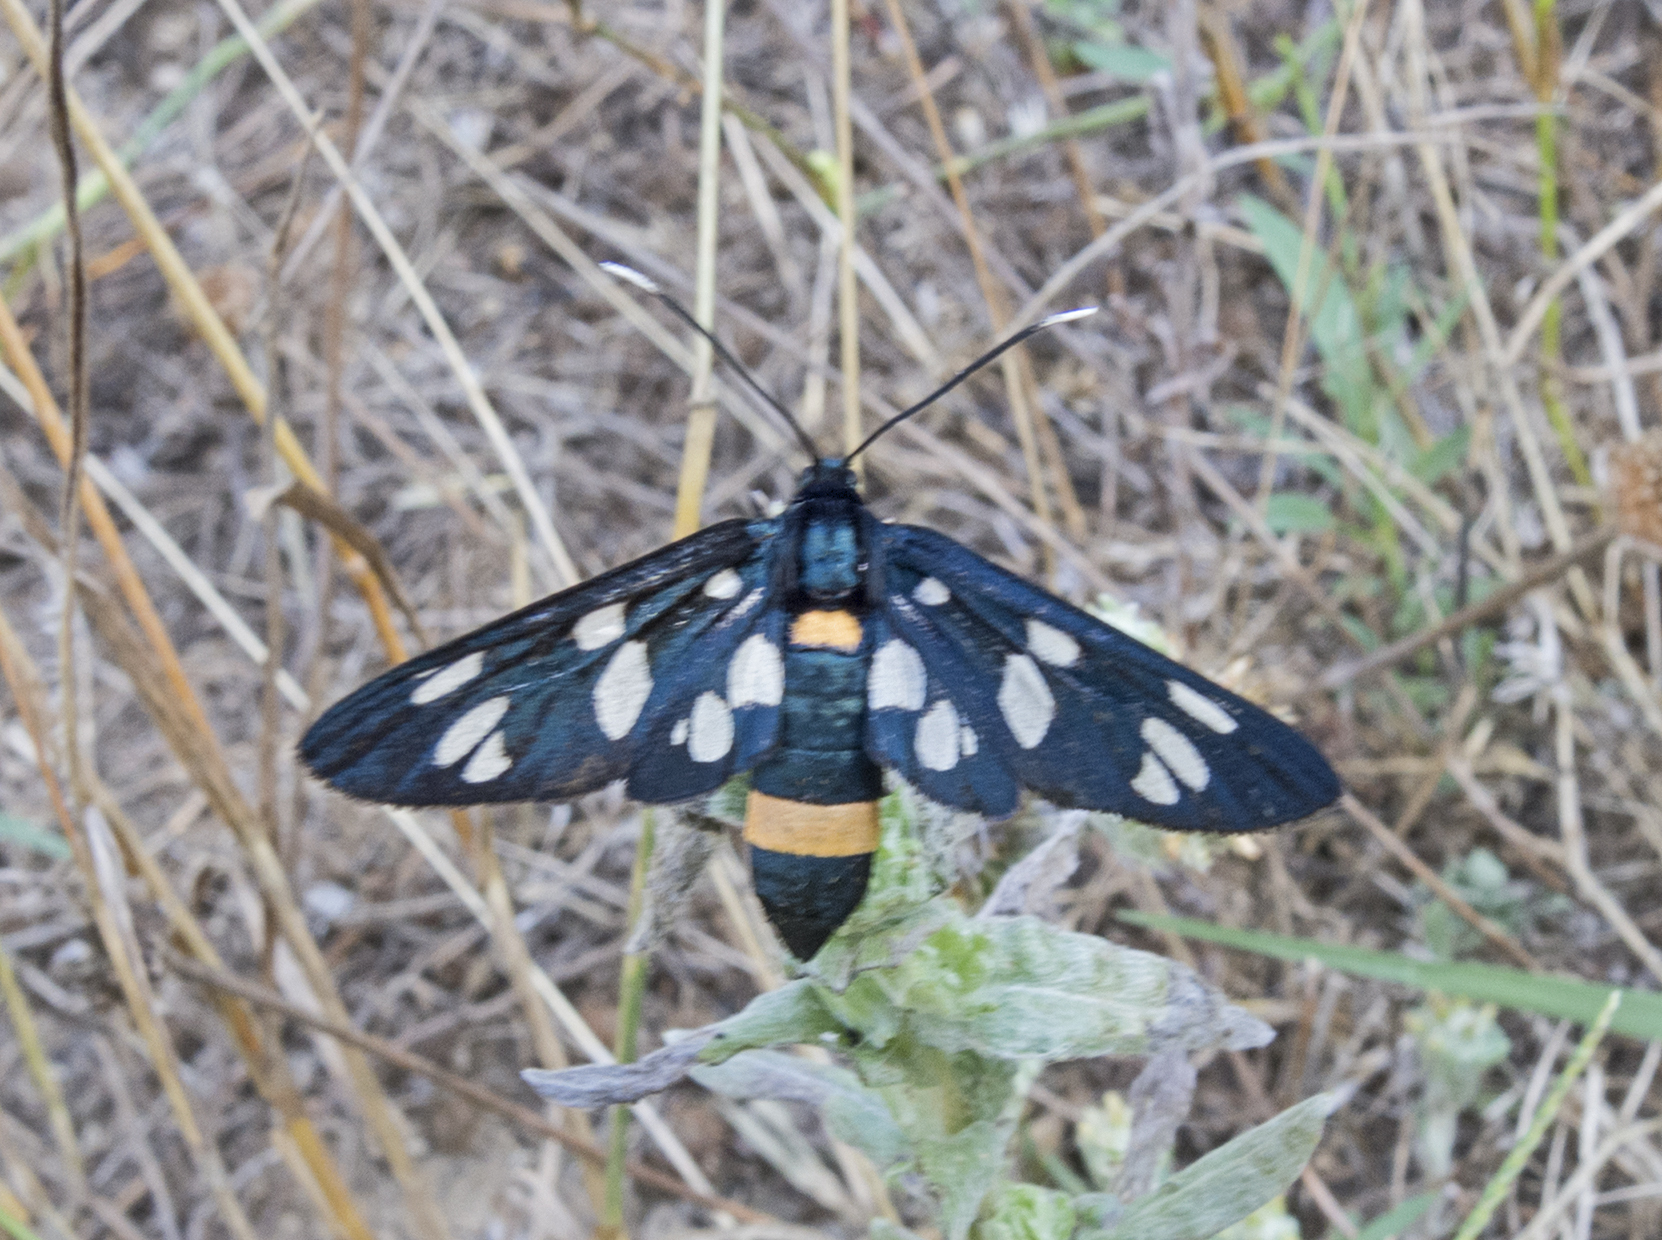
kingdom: Animalia
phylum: Arthropoda
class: Insecta
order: Lepidoptera
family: Erebidae
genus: Amata
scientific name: Amata phegea
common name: Nine-spotted
